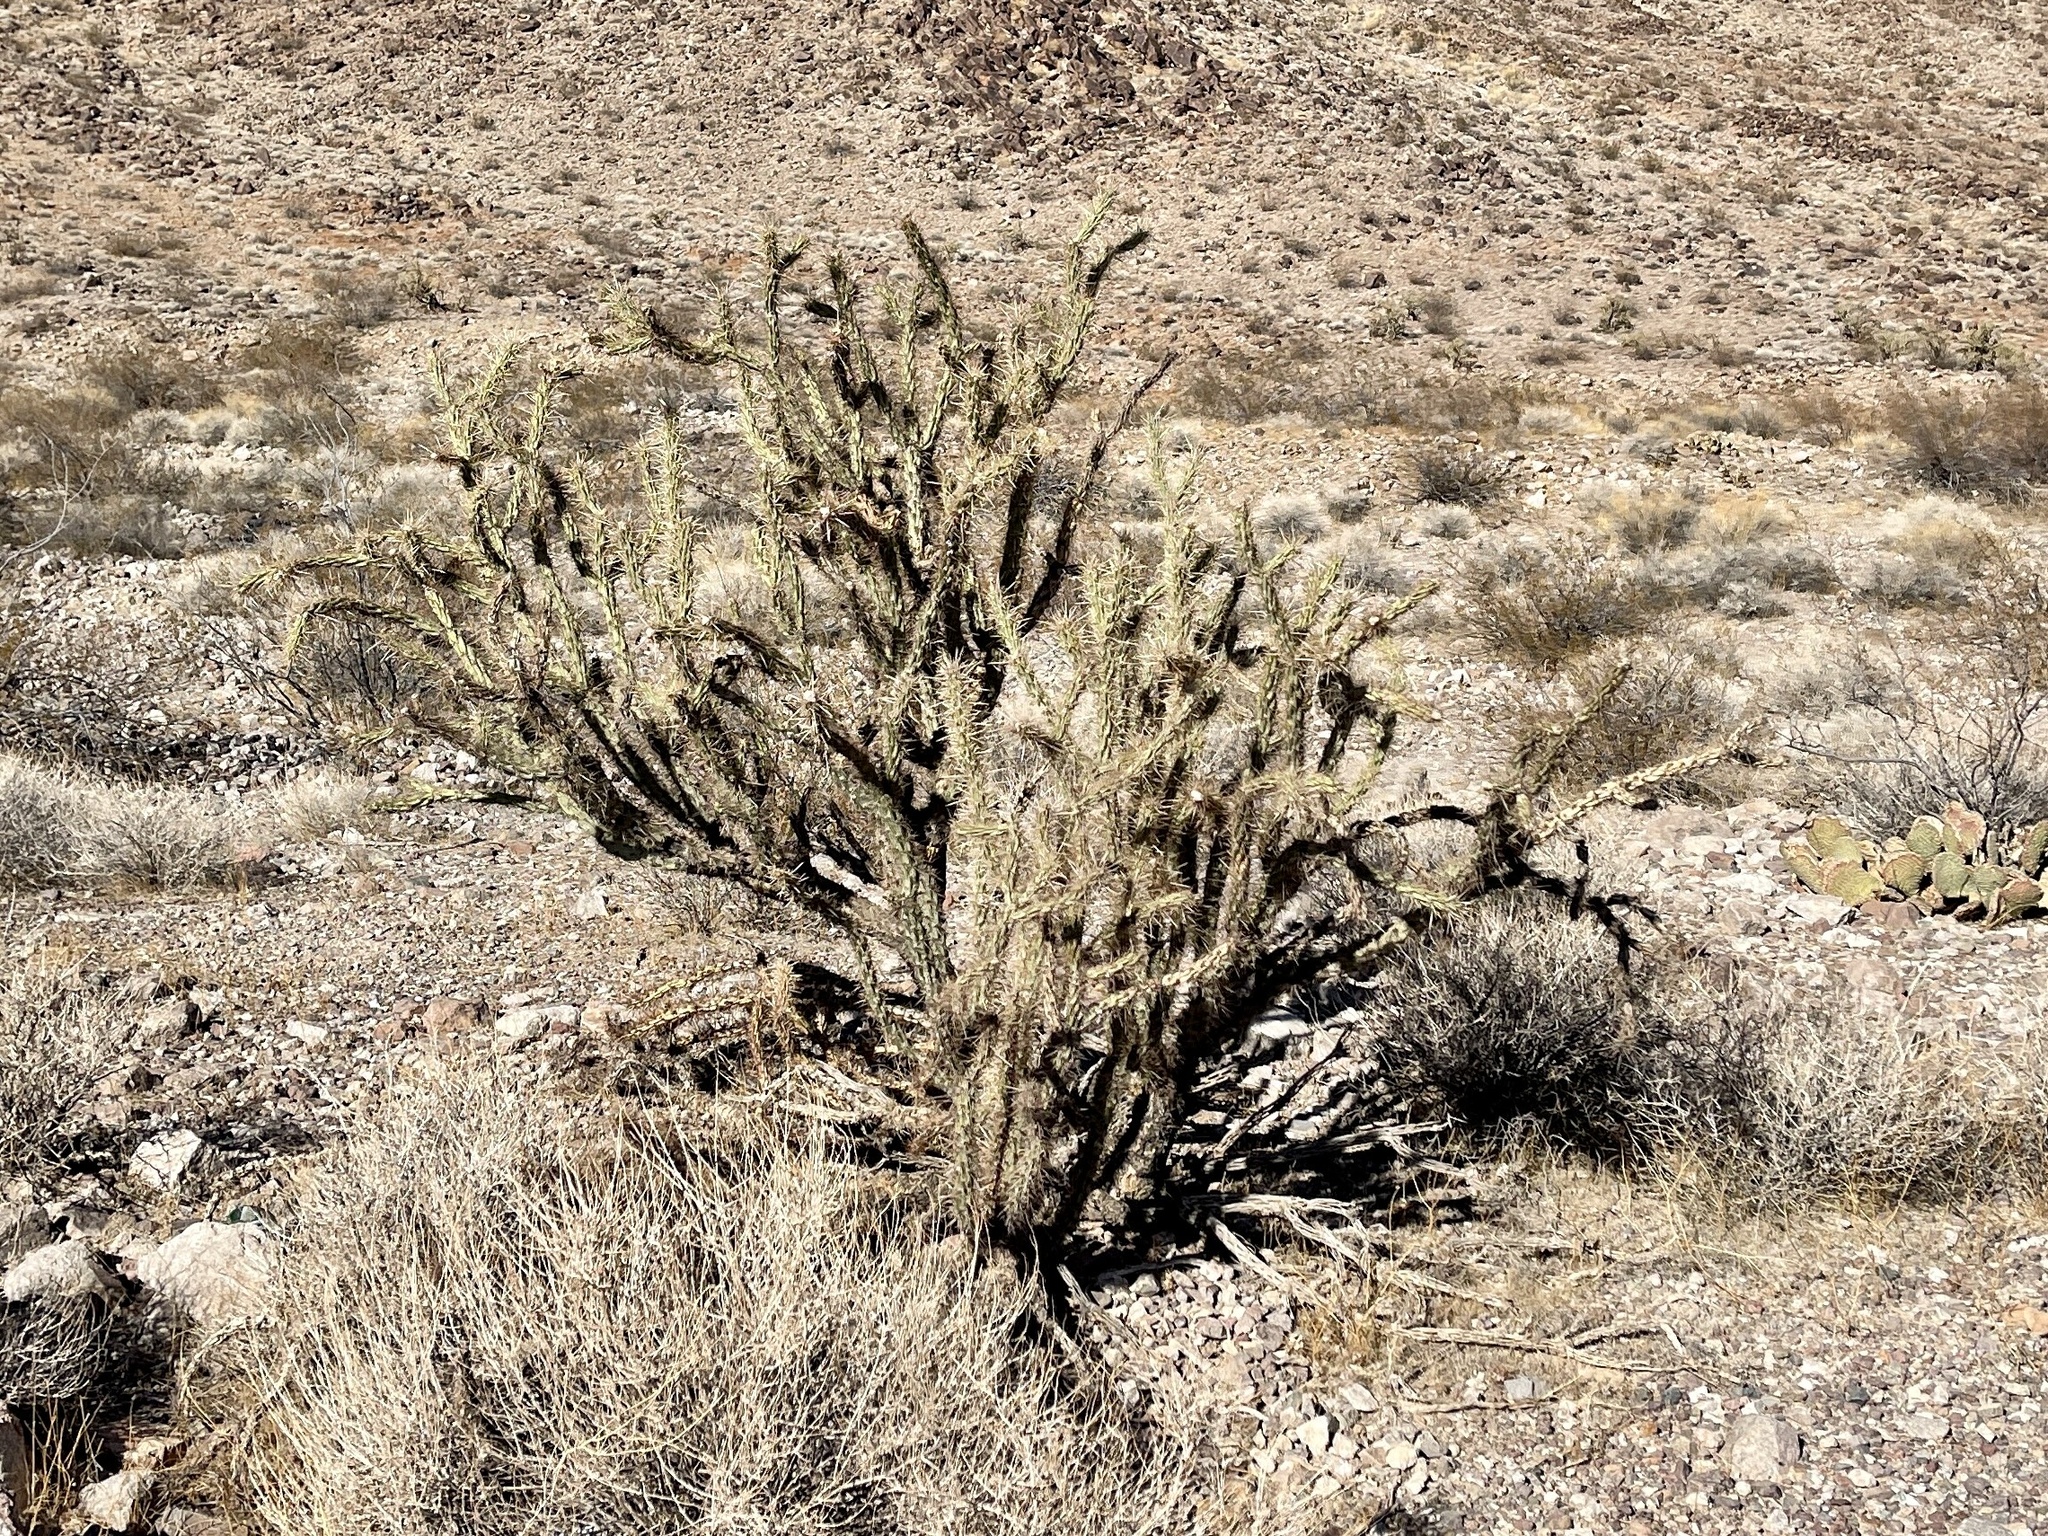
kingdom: Plantae
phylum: Tracheophyta
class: Magnoliopsida
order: Caryophyllales
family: Cactaceae
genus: Cylindropuntia
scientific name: Cylindropuntia acanthocarpa
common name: Buckhorn cholla
